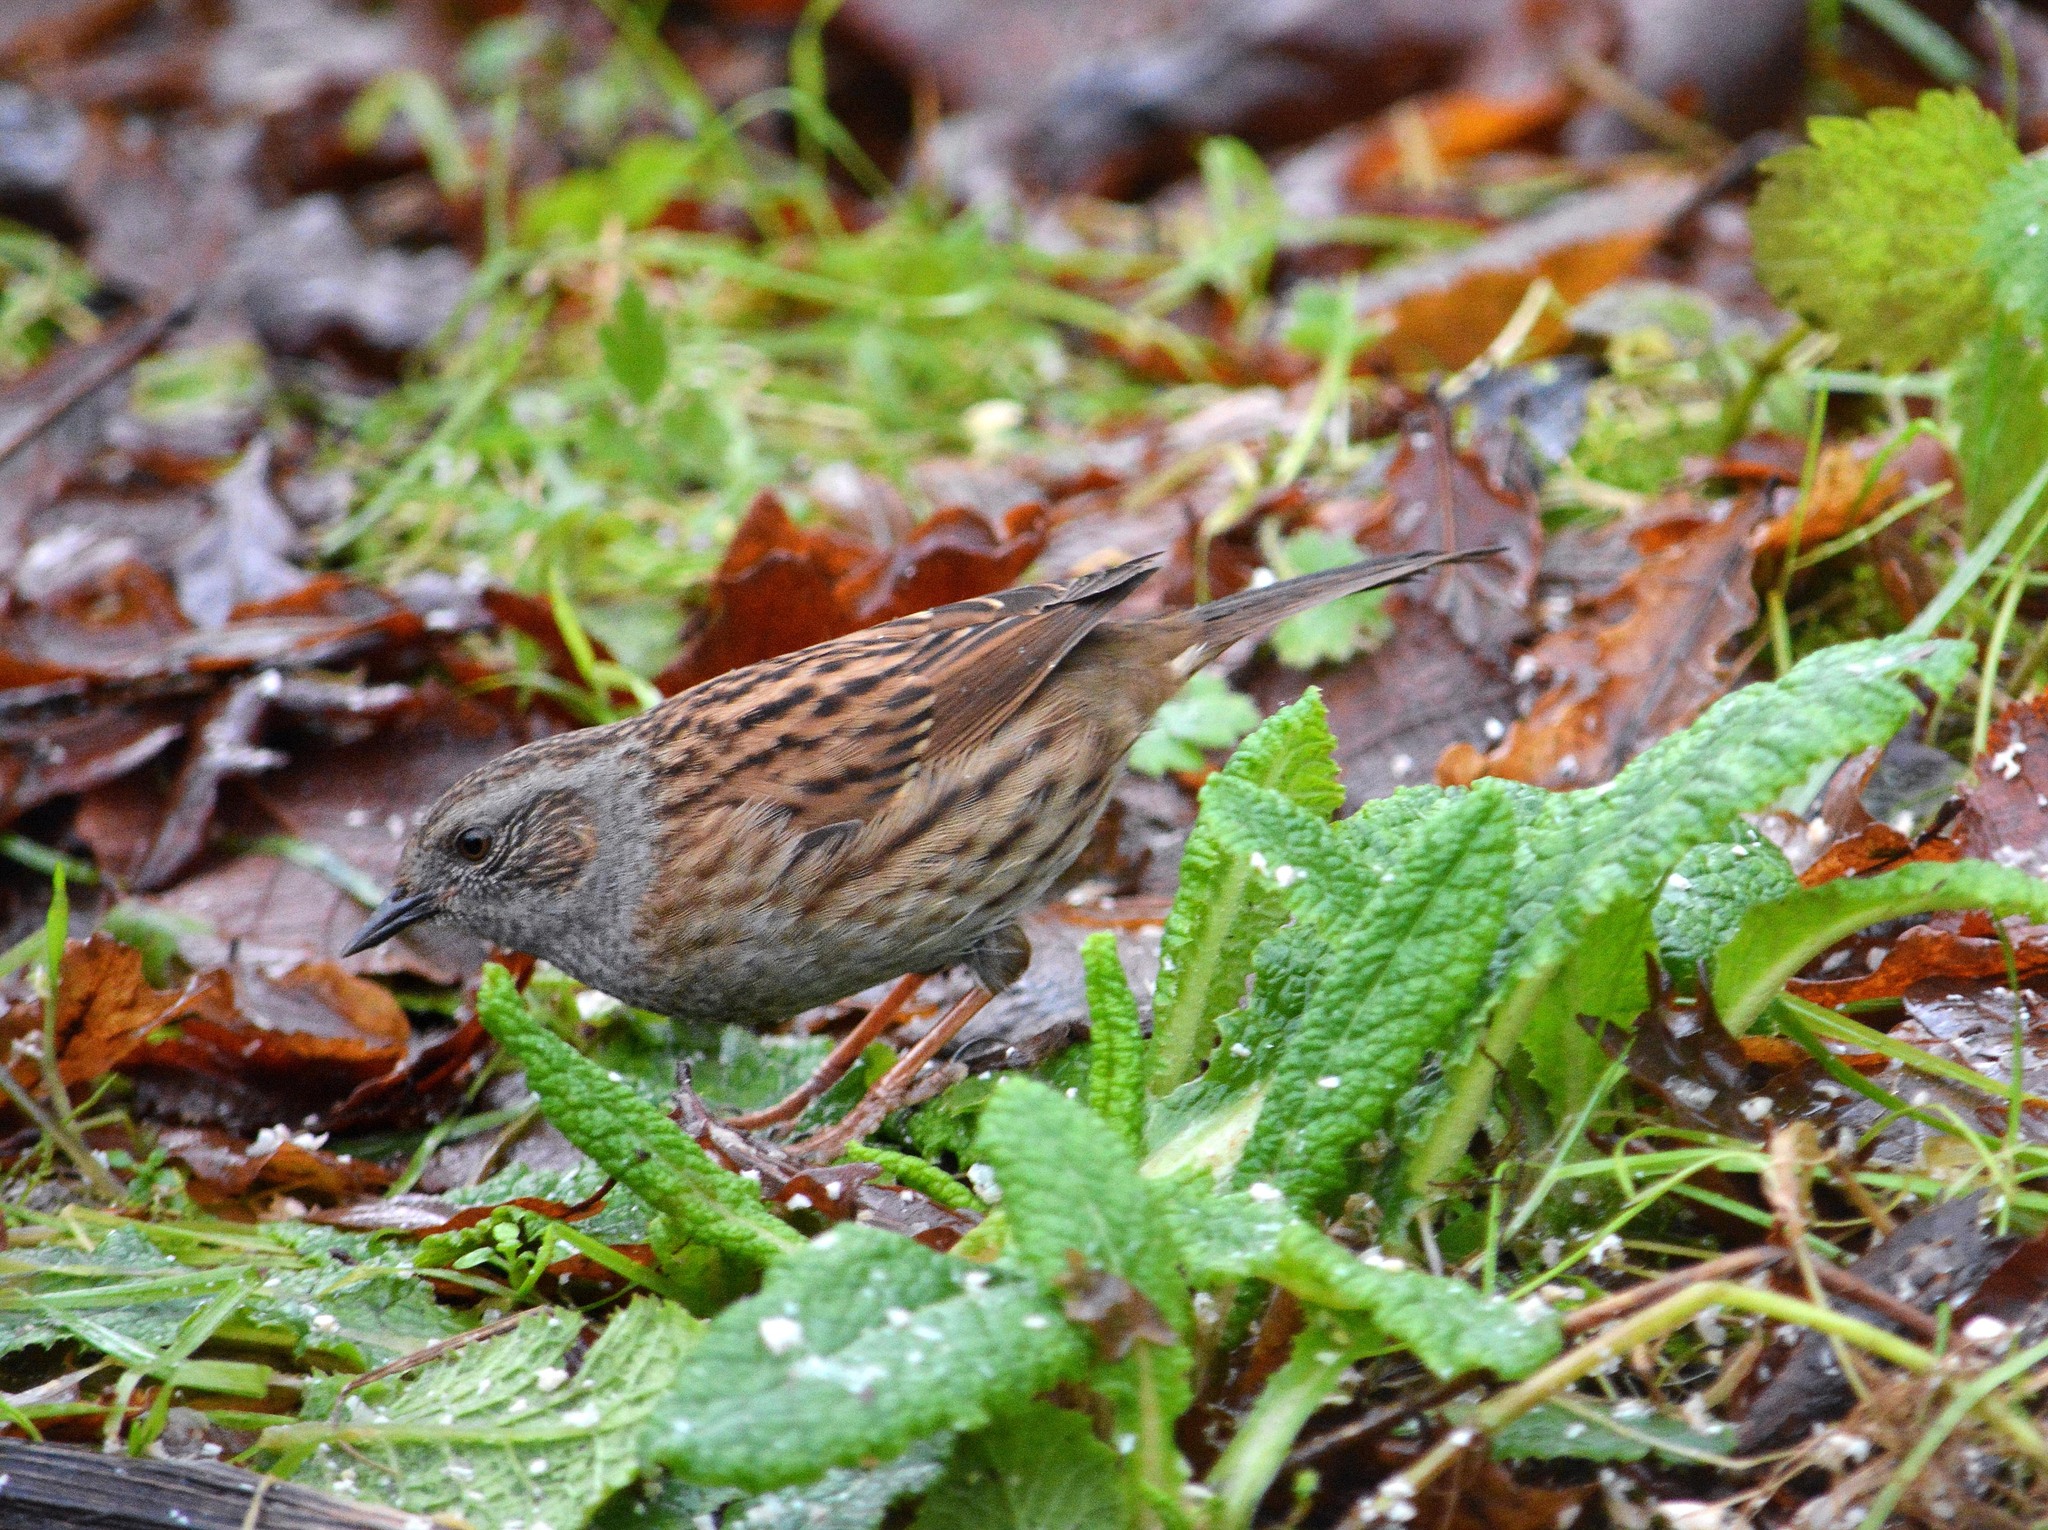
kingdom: Animalia
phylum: Chordata
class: Aves
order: Passeriformes
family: Prunellidae
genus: Prunella
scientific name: Prunella modularis
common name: Dunnock
